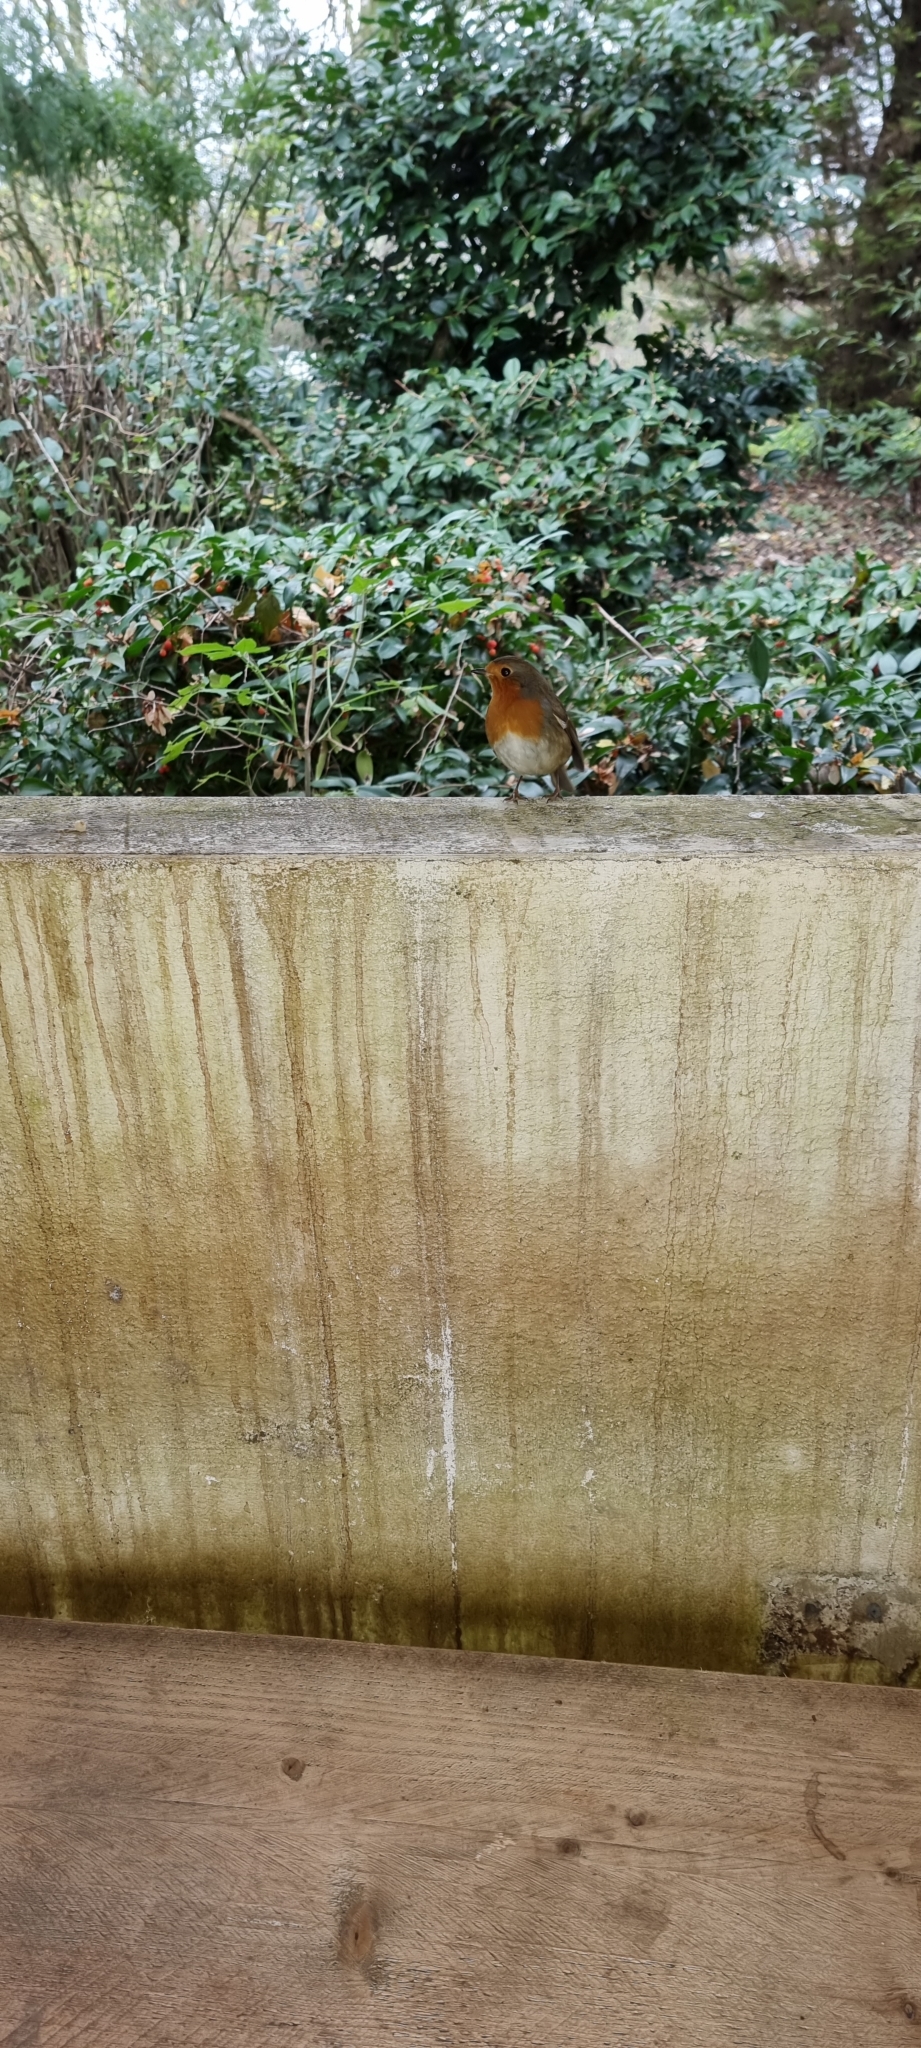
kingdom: Animalia
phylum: Chordata
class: Aves
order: Passeriformes
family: Muscicapidae
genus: Erithacus
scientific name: Erithacus rubecula
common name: European robin
